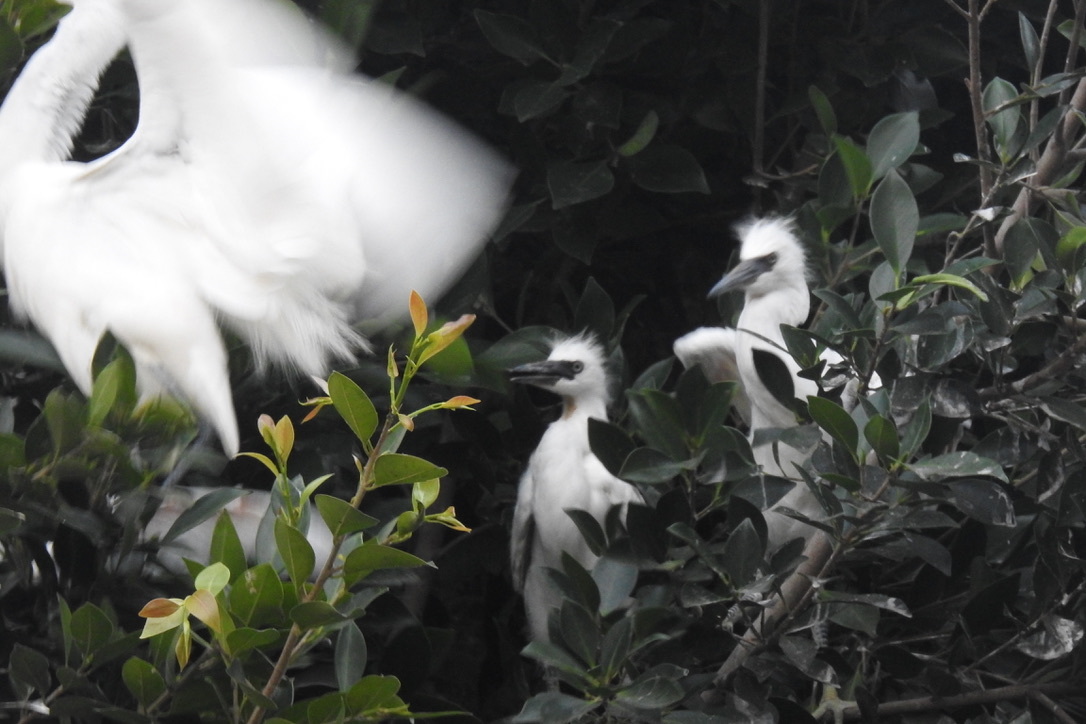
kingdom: Animalia
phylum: Chordata
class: Aves
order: Pelecaniformes
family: Ardeidae
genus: Egretta
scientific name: Egretta thula
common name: Snowy egret
